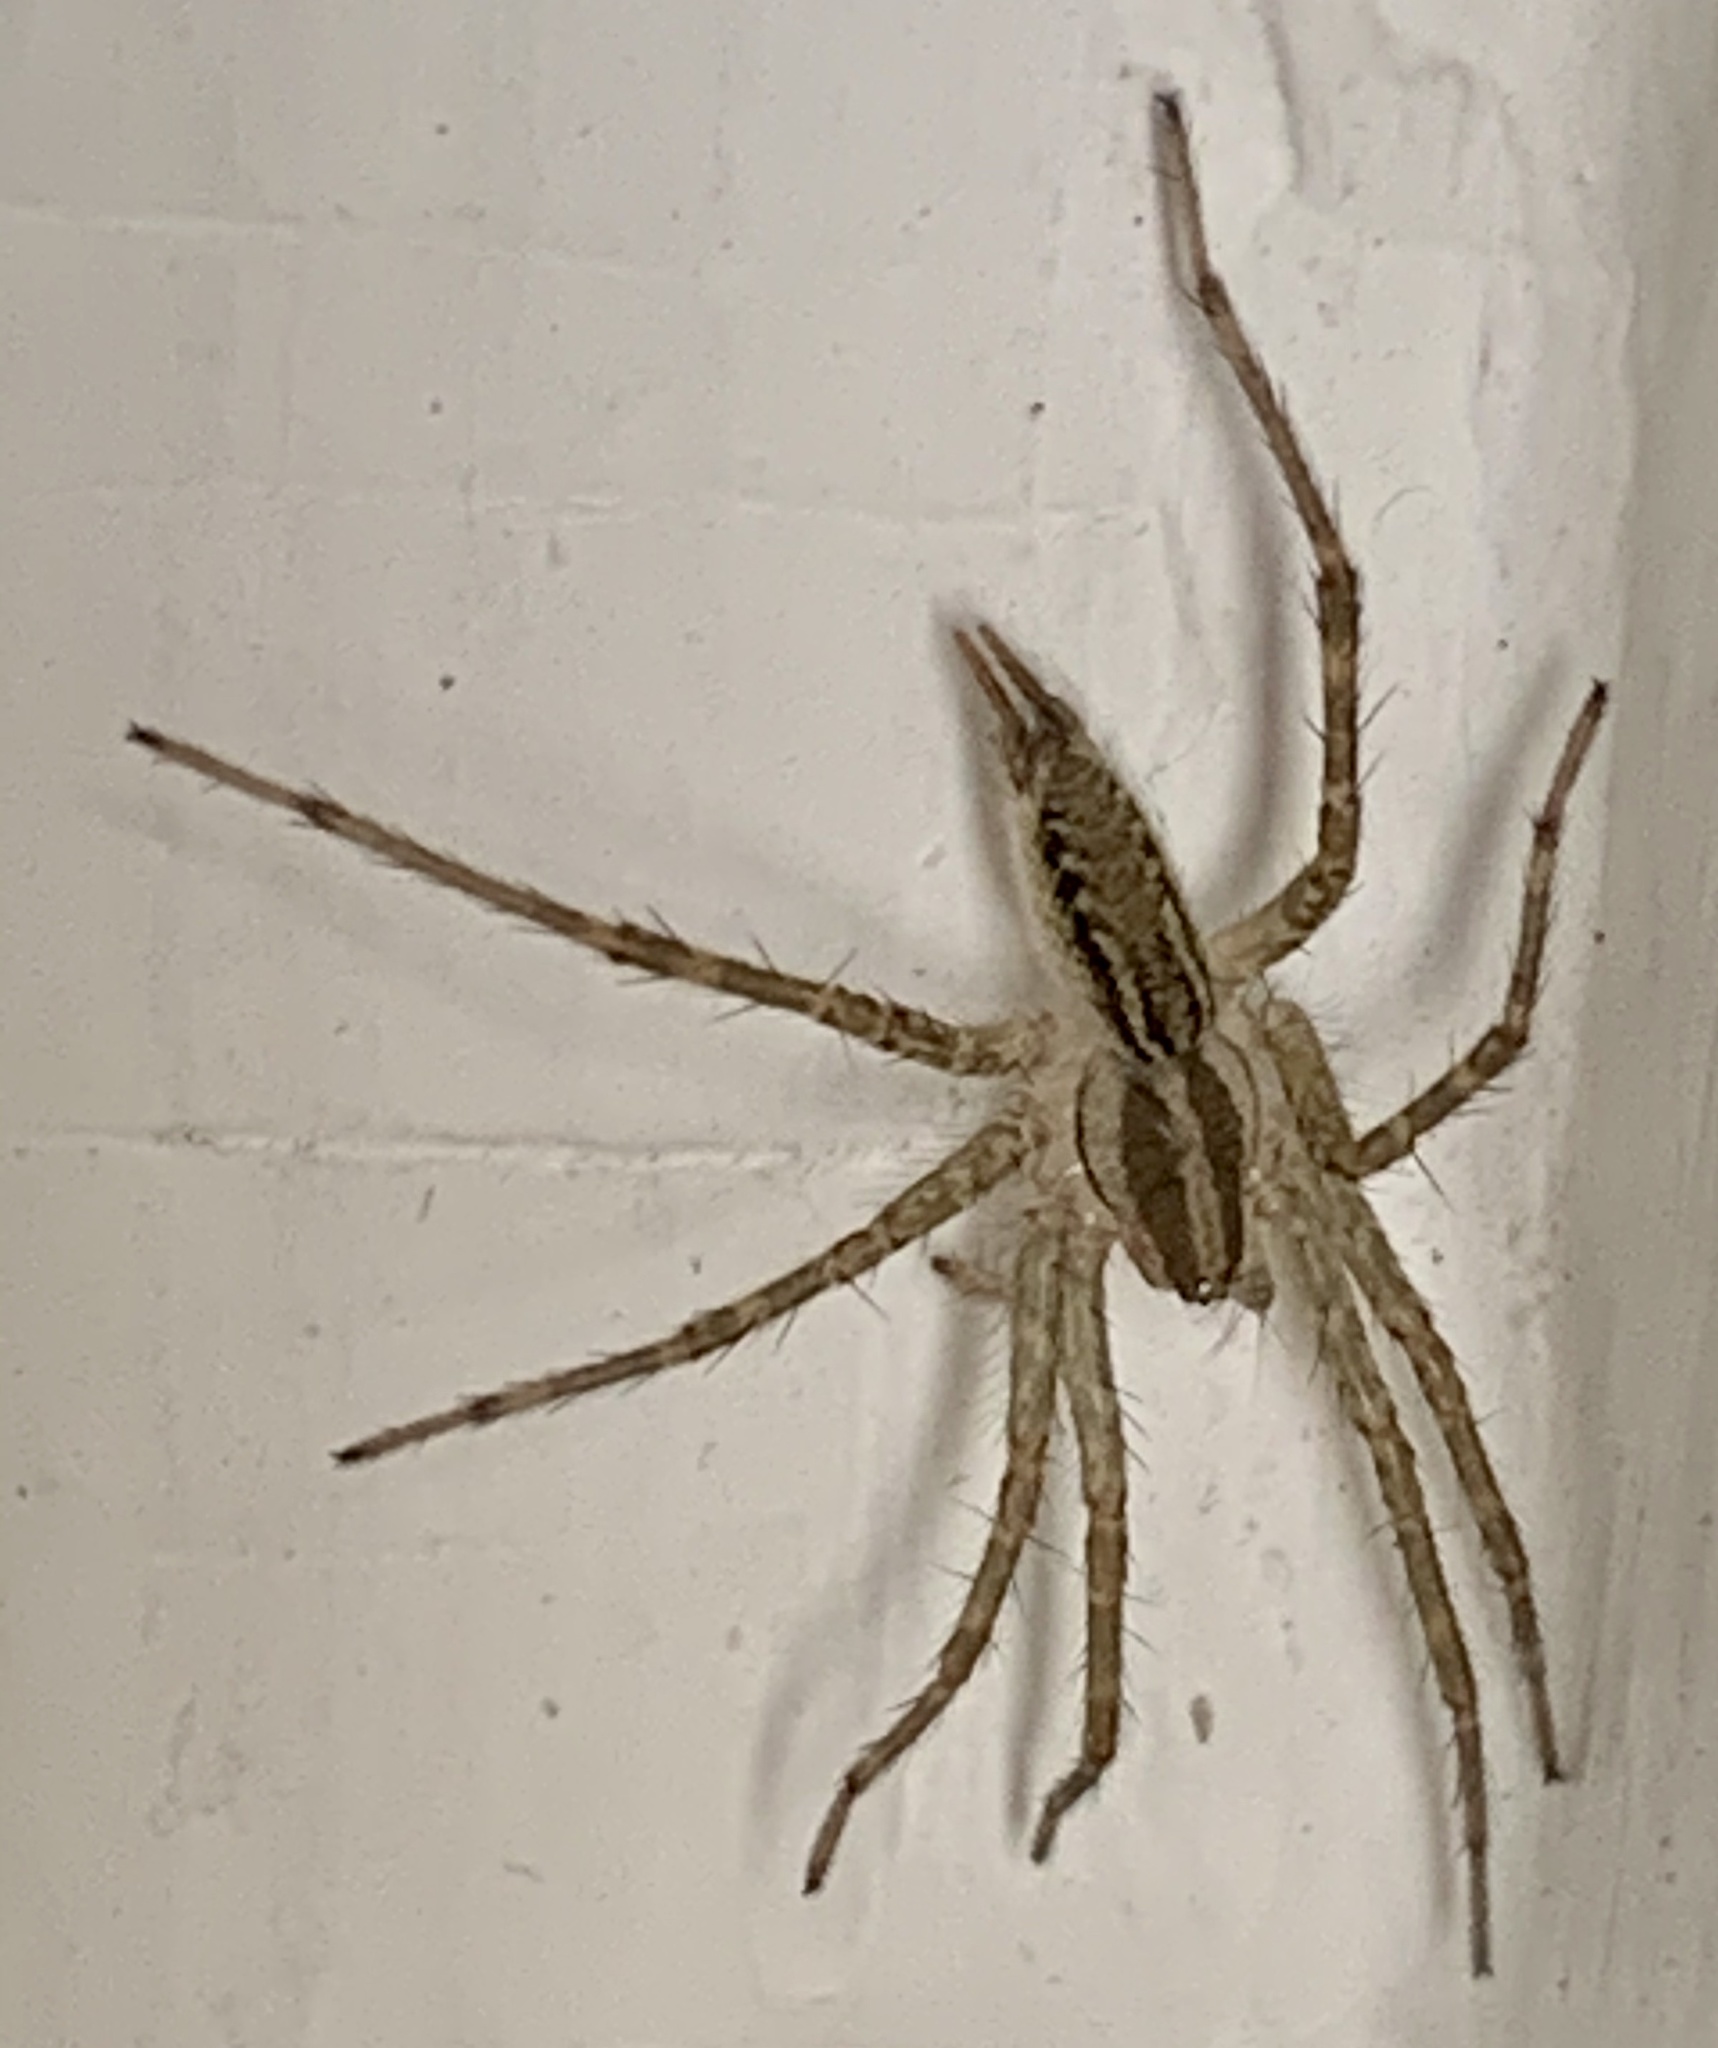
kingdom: Animalia
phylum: Arthropoda
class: Arachnida
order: Araneae
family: Agelenidae
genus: Agelenopsis
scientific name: Agelenopsis
